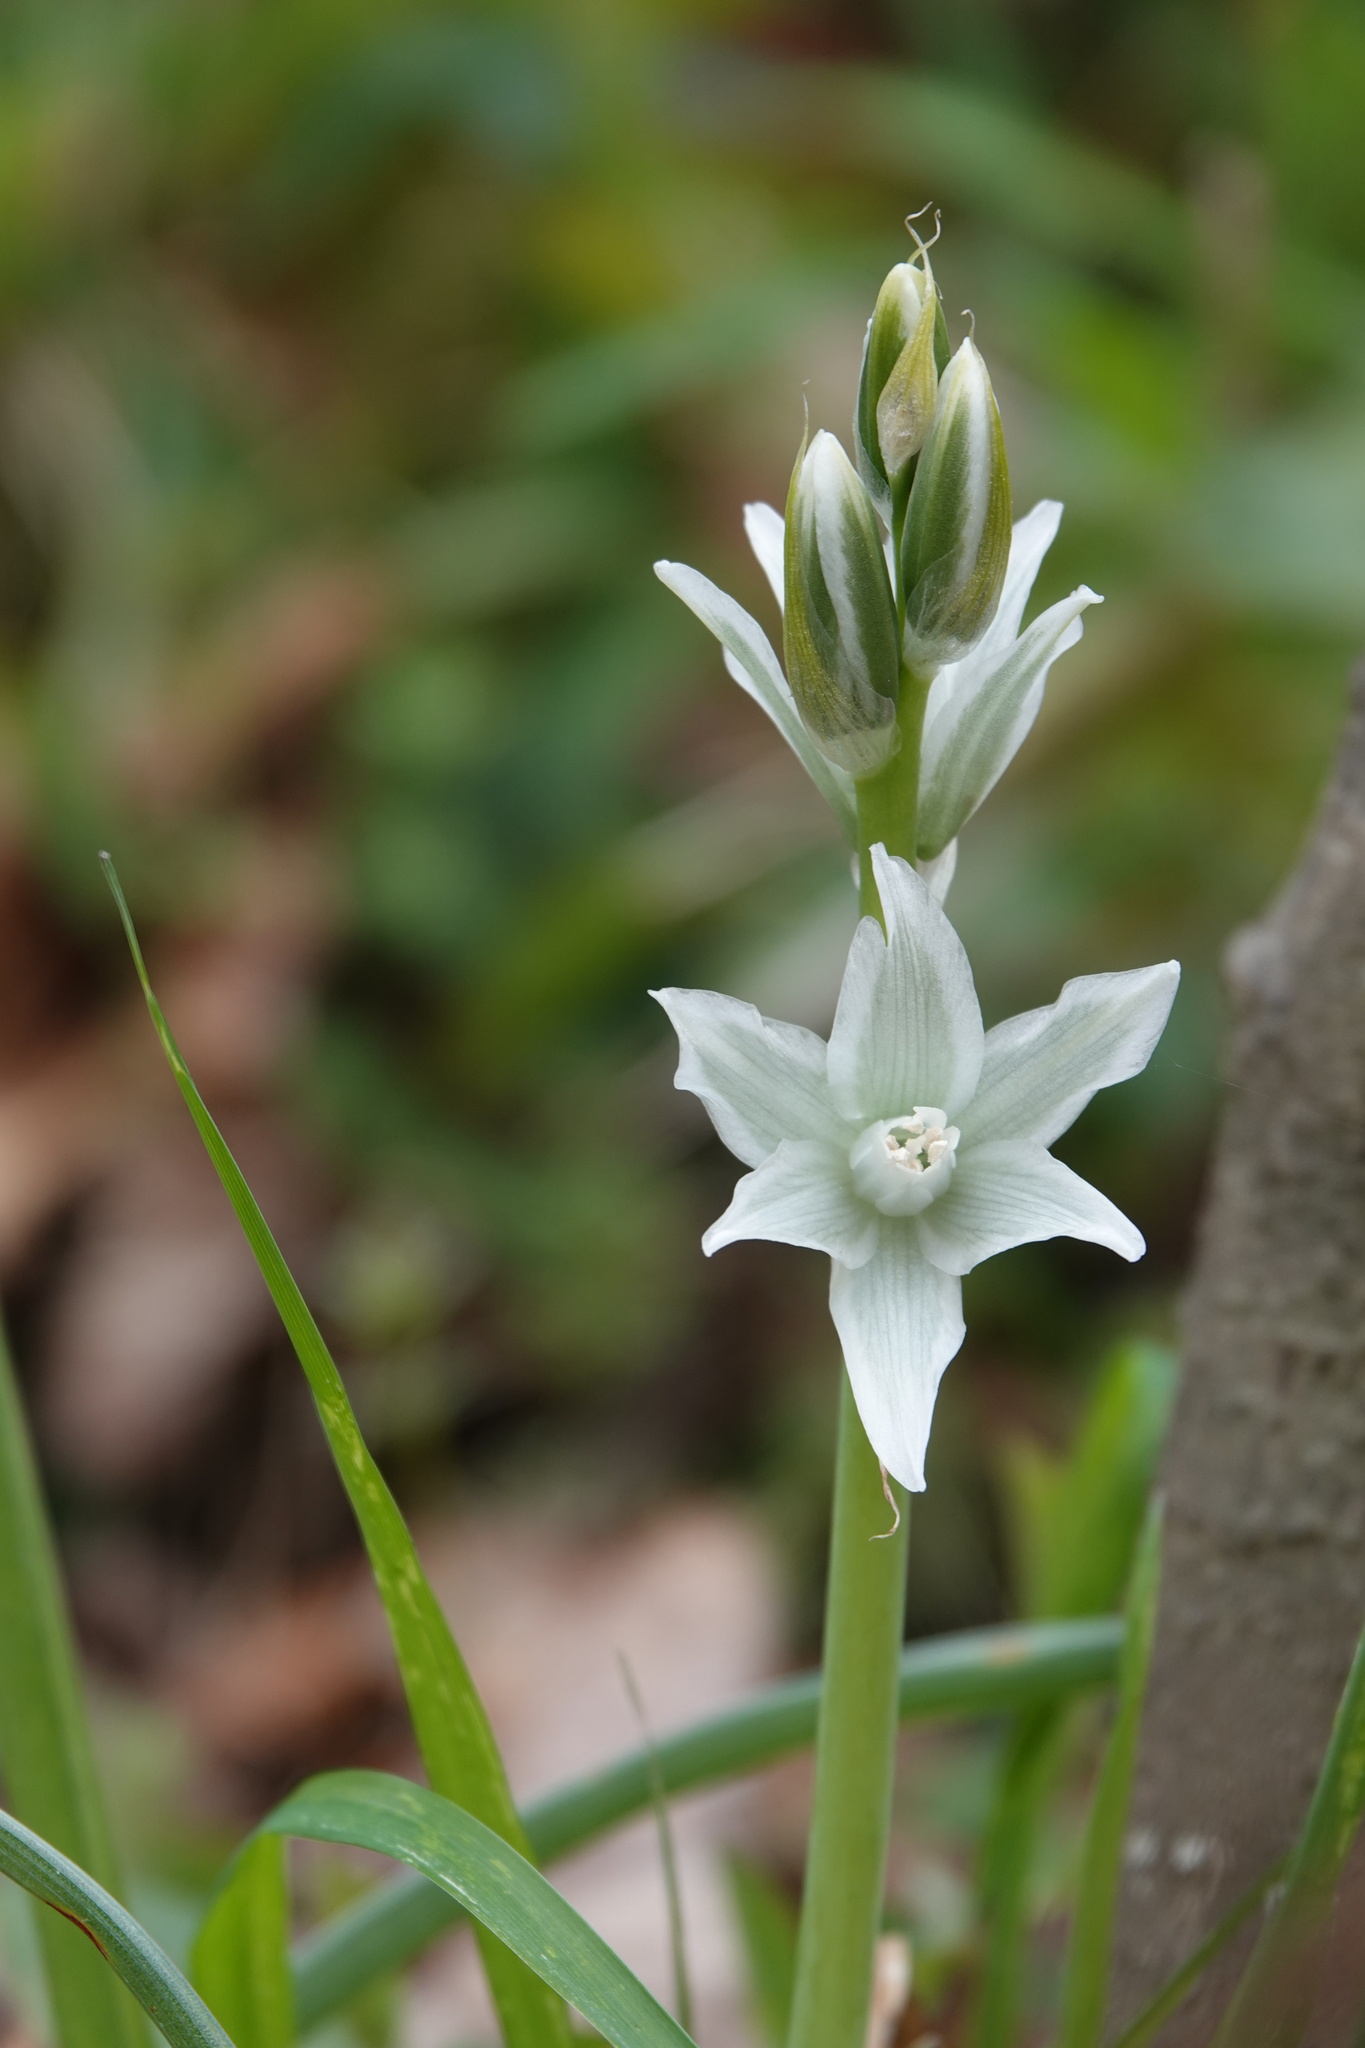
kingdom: Plantae
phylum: Tracheophyta
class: Liliopsida
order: Asparagales
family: Asparagaceae
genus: Ornithogalum
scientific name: Ornithogalum nutans
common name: Drooping star-of-bethlehem
